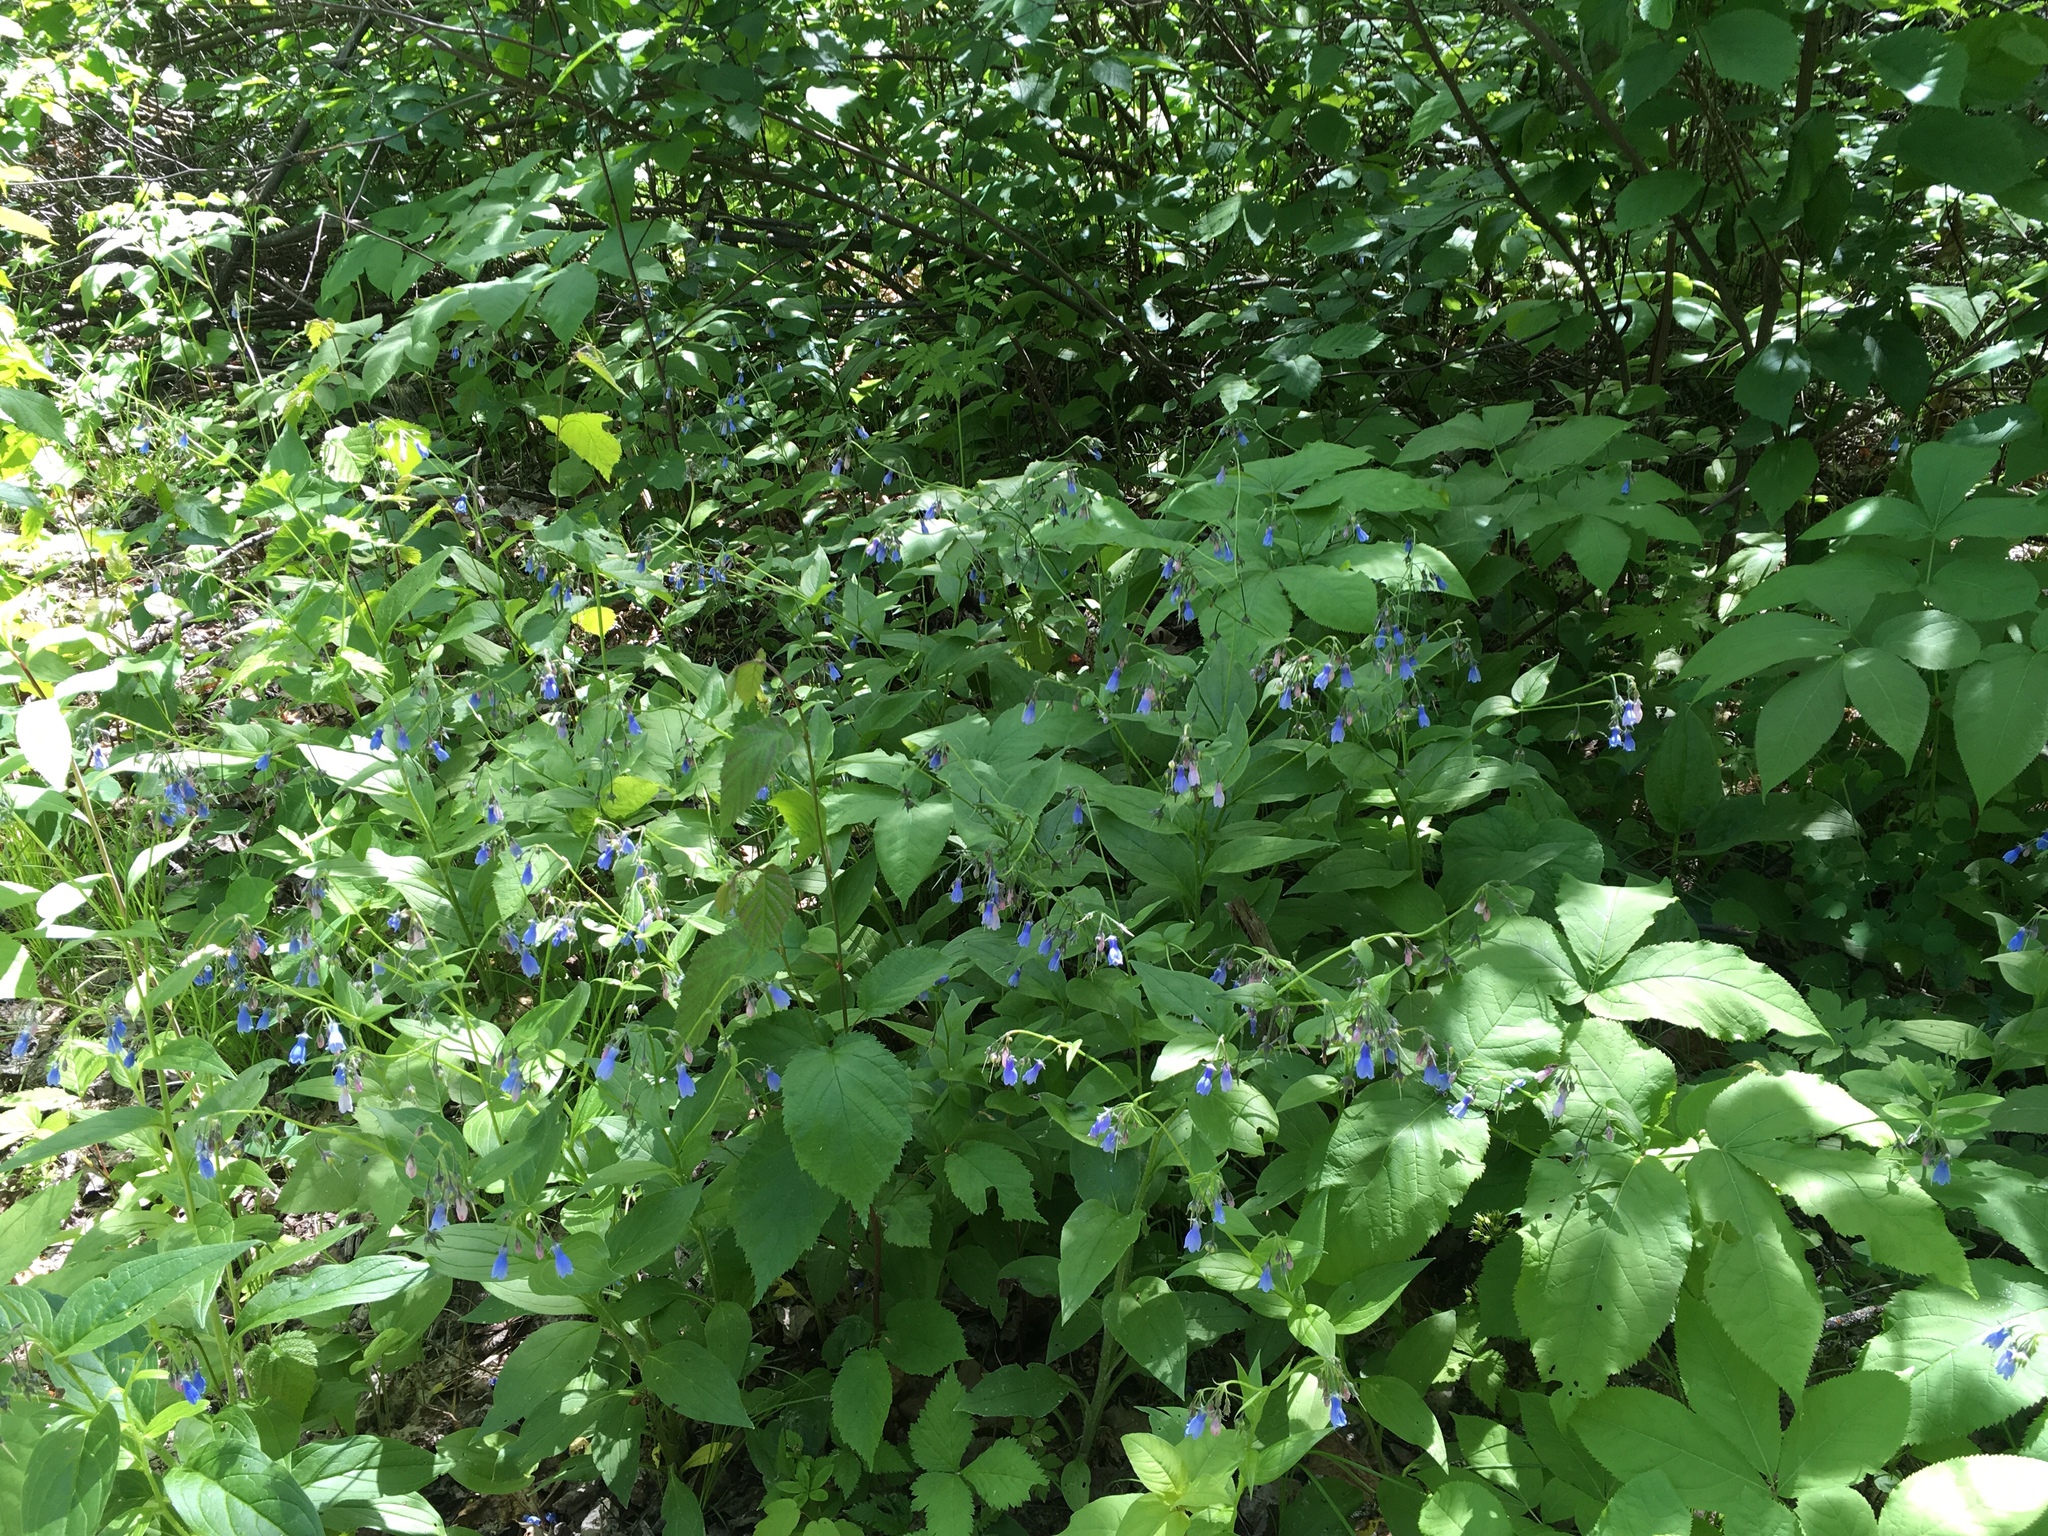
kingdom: Plantae
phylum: Tracheophyta
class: Magnoliopsida
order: Boraginales
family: Boraginaceae
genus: Mertensia
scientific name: Mertensia paniculata
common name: Panicled bluebells
